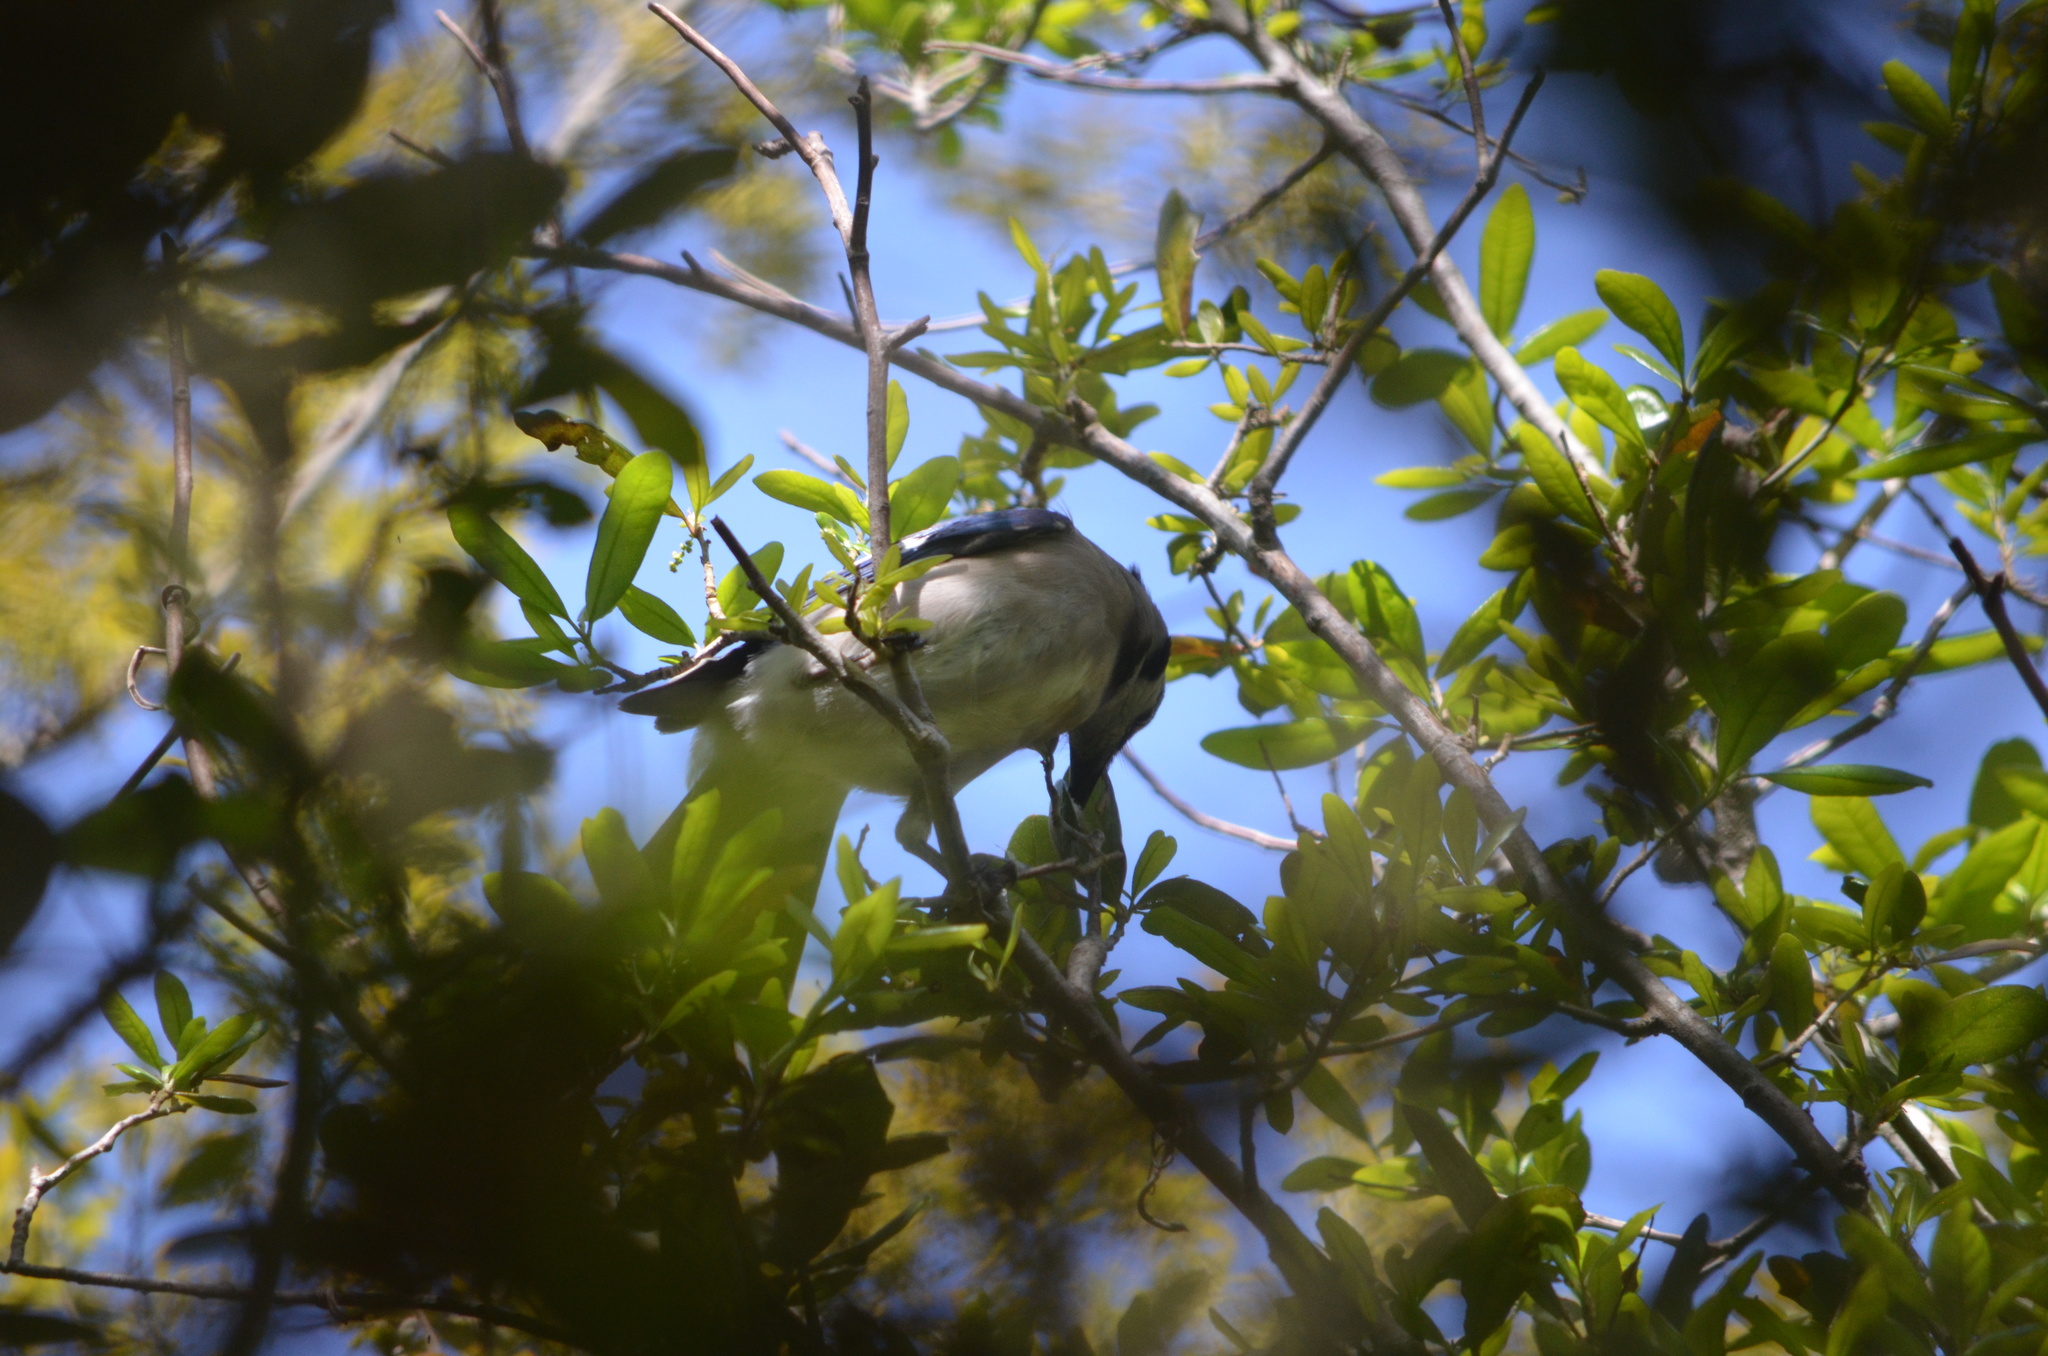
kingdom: Animalia
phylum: Chordata
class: Aves
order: Passeriformes
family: Corvidae
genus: Cyanocitta
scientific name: Cyanocitta cristata
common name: Blue jay
